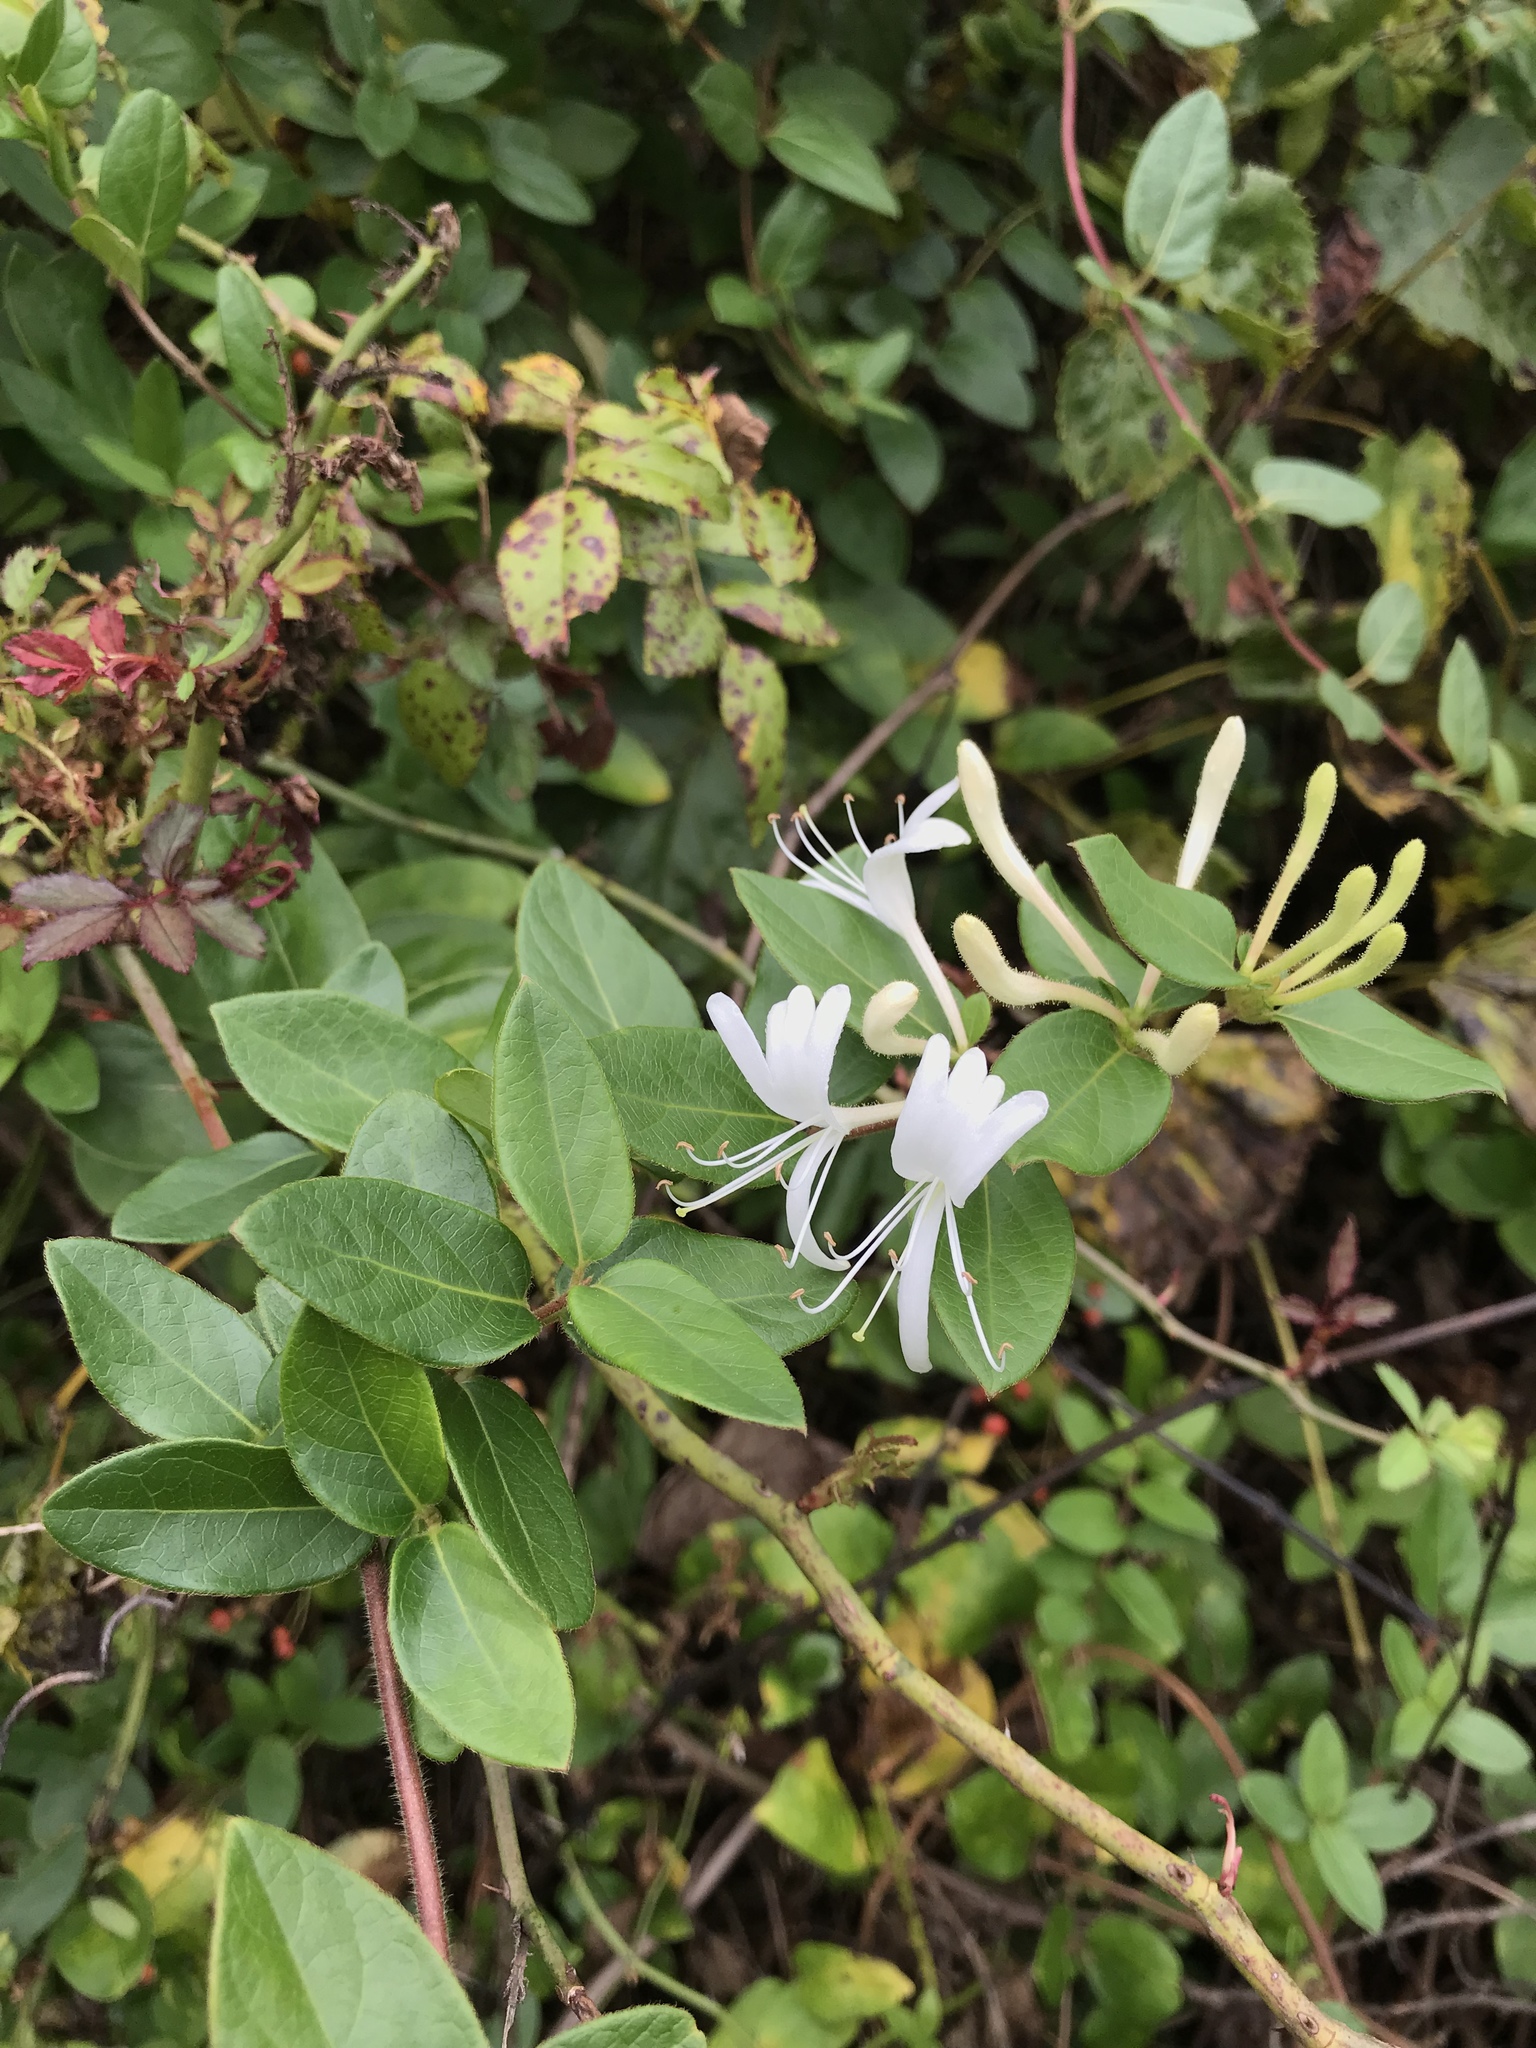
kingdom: Plantae
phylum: Tracheophyta
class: Magnoliopsida
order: Dipsacales
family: Caprifoliaceae
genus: Lonicera
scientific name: Lonicera japonica
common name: Japanese honeysuckle
